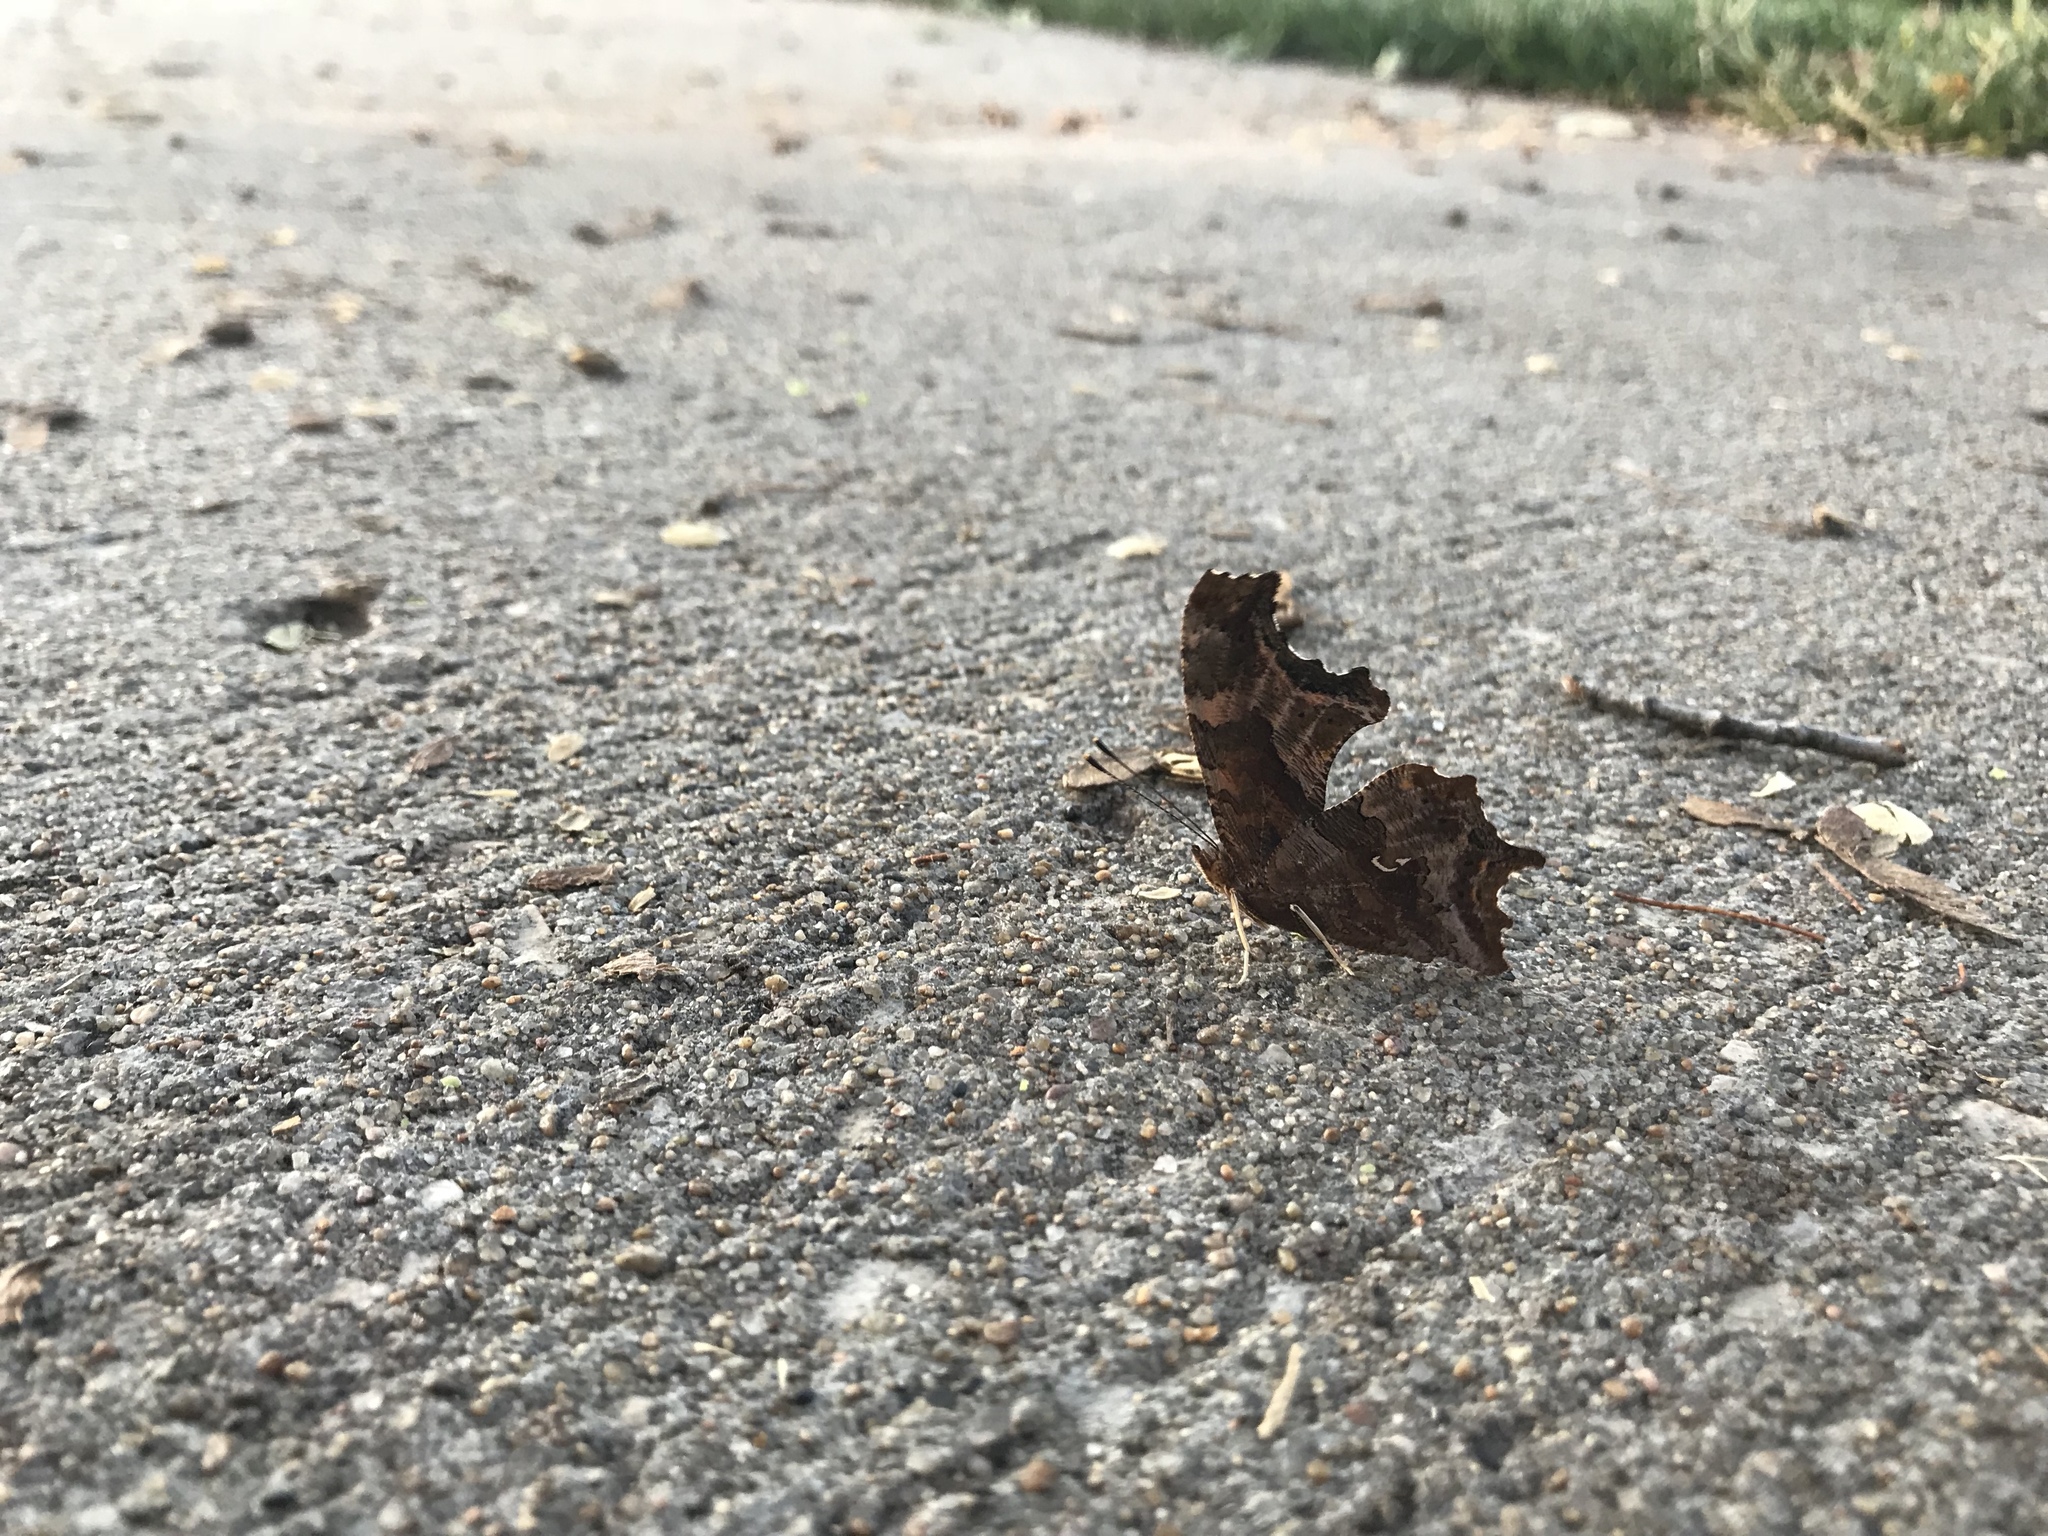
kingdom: Animalia
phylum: Arthropoda
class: Insecta
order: Lepidoptera
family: Nymphalidae
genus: Polygonia
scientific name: Polygonia interrogationis
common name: Question mark
